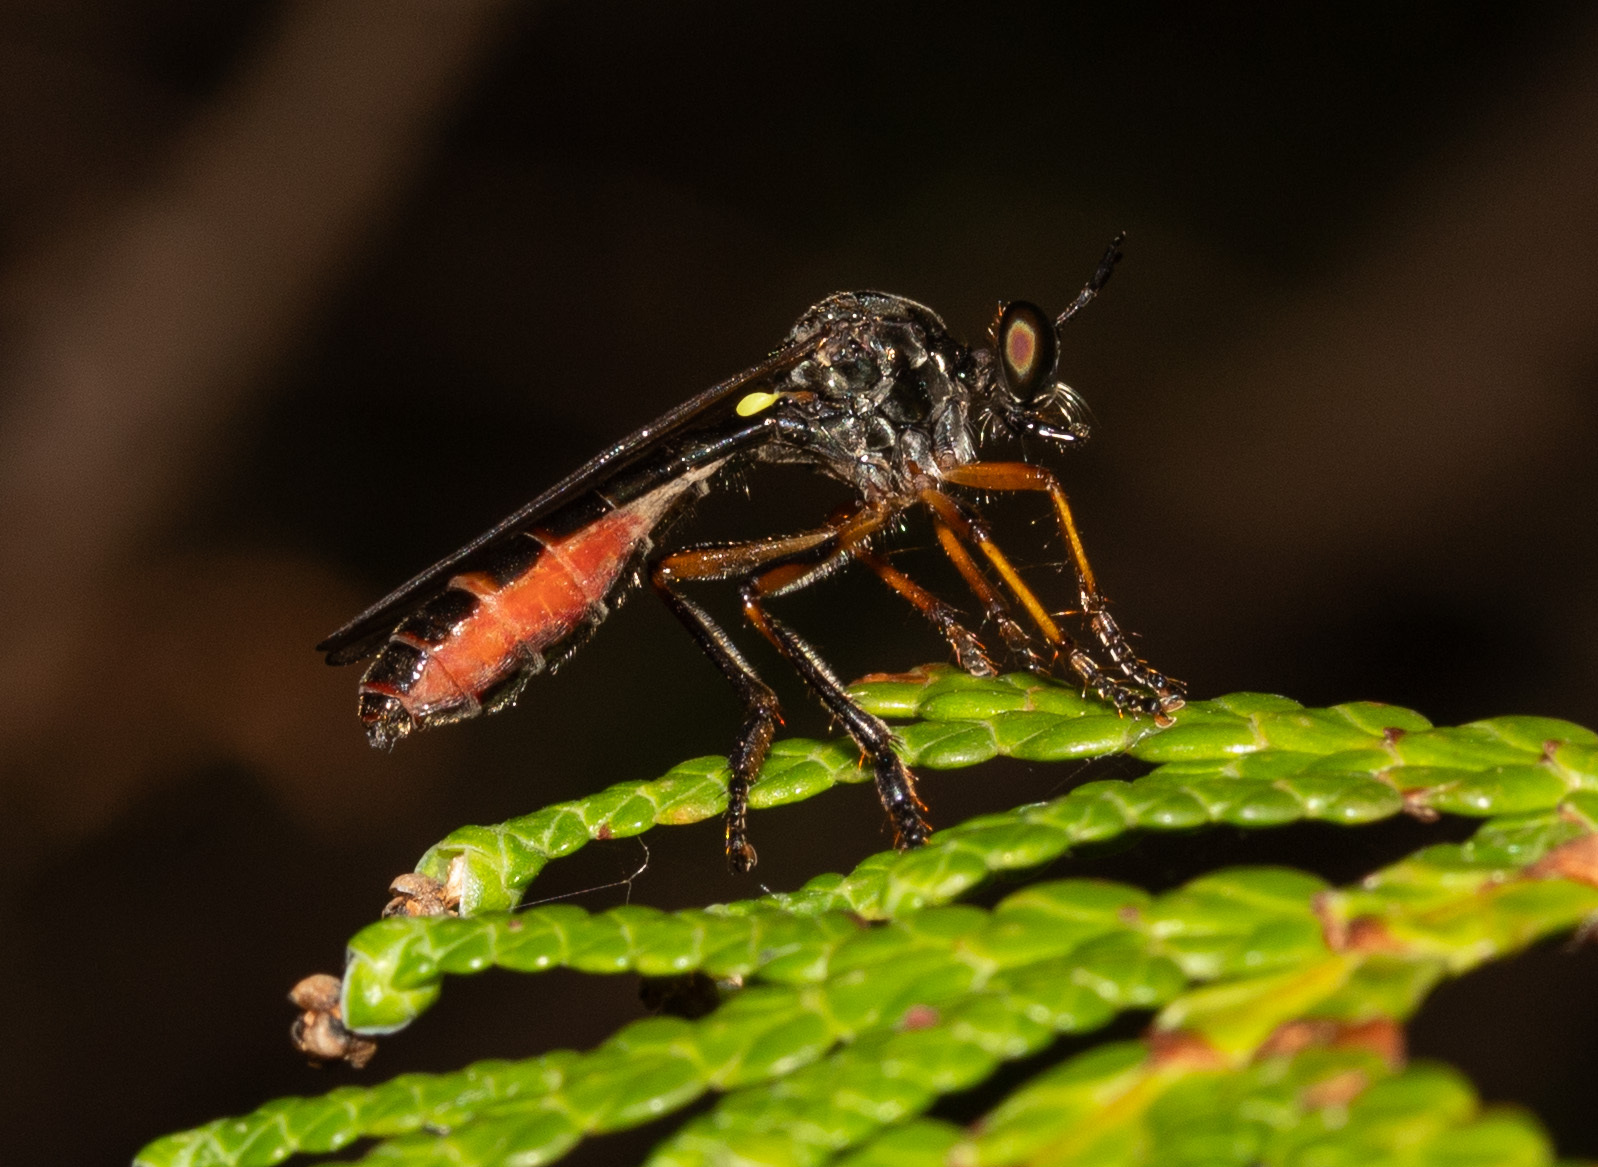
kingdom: Animalia
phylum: Arthropoda
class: Insecta
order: Diptera
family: Asilidae
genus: Dioctria
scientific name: Dioctria hyalipennis
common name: Stripe-legged robberfly
